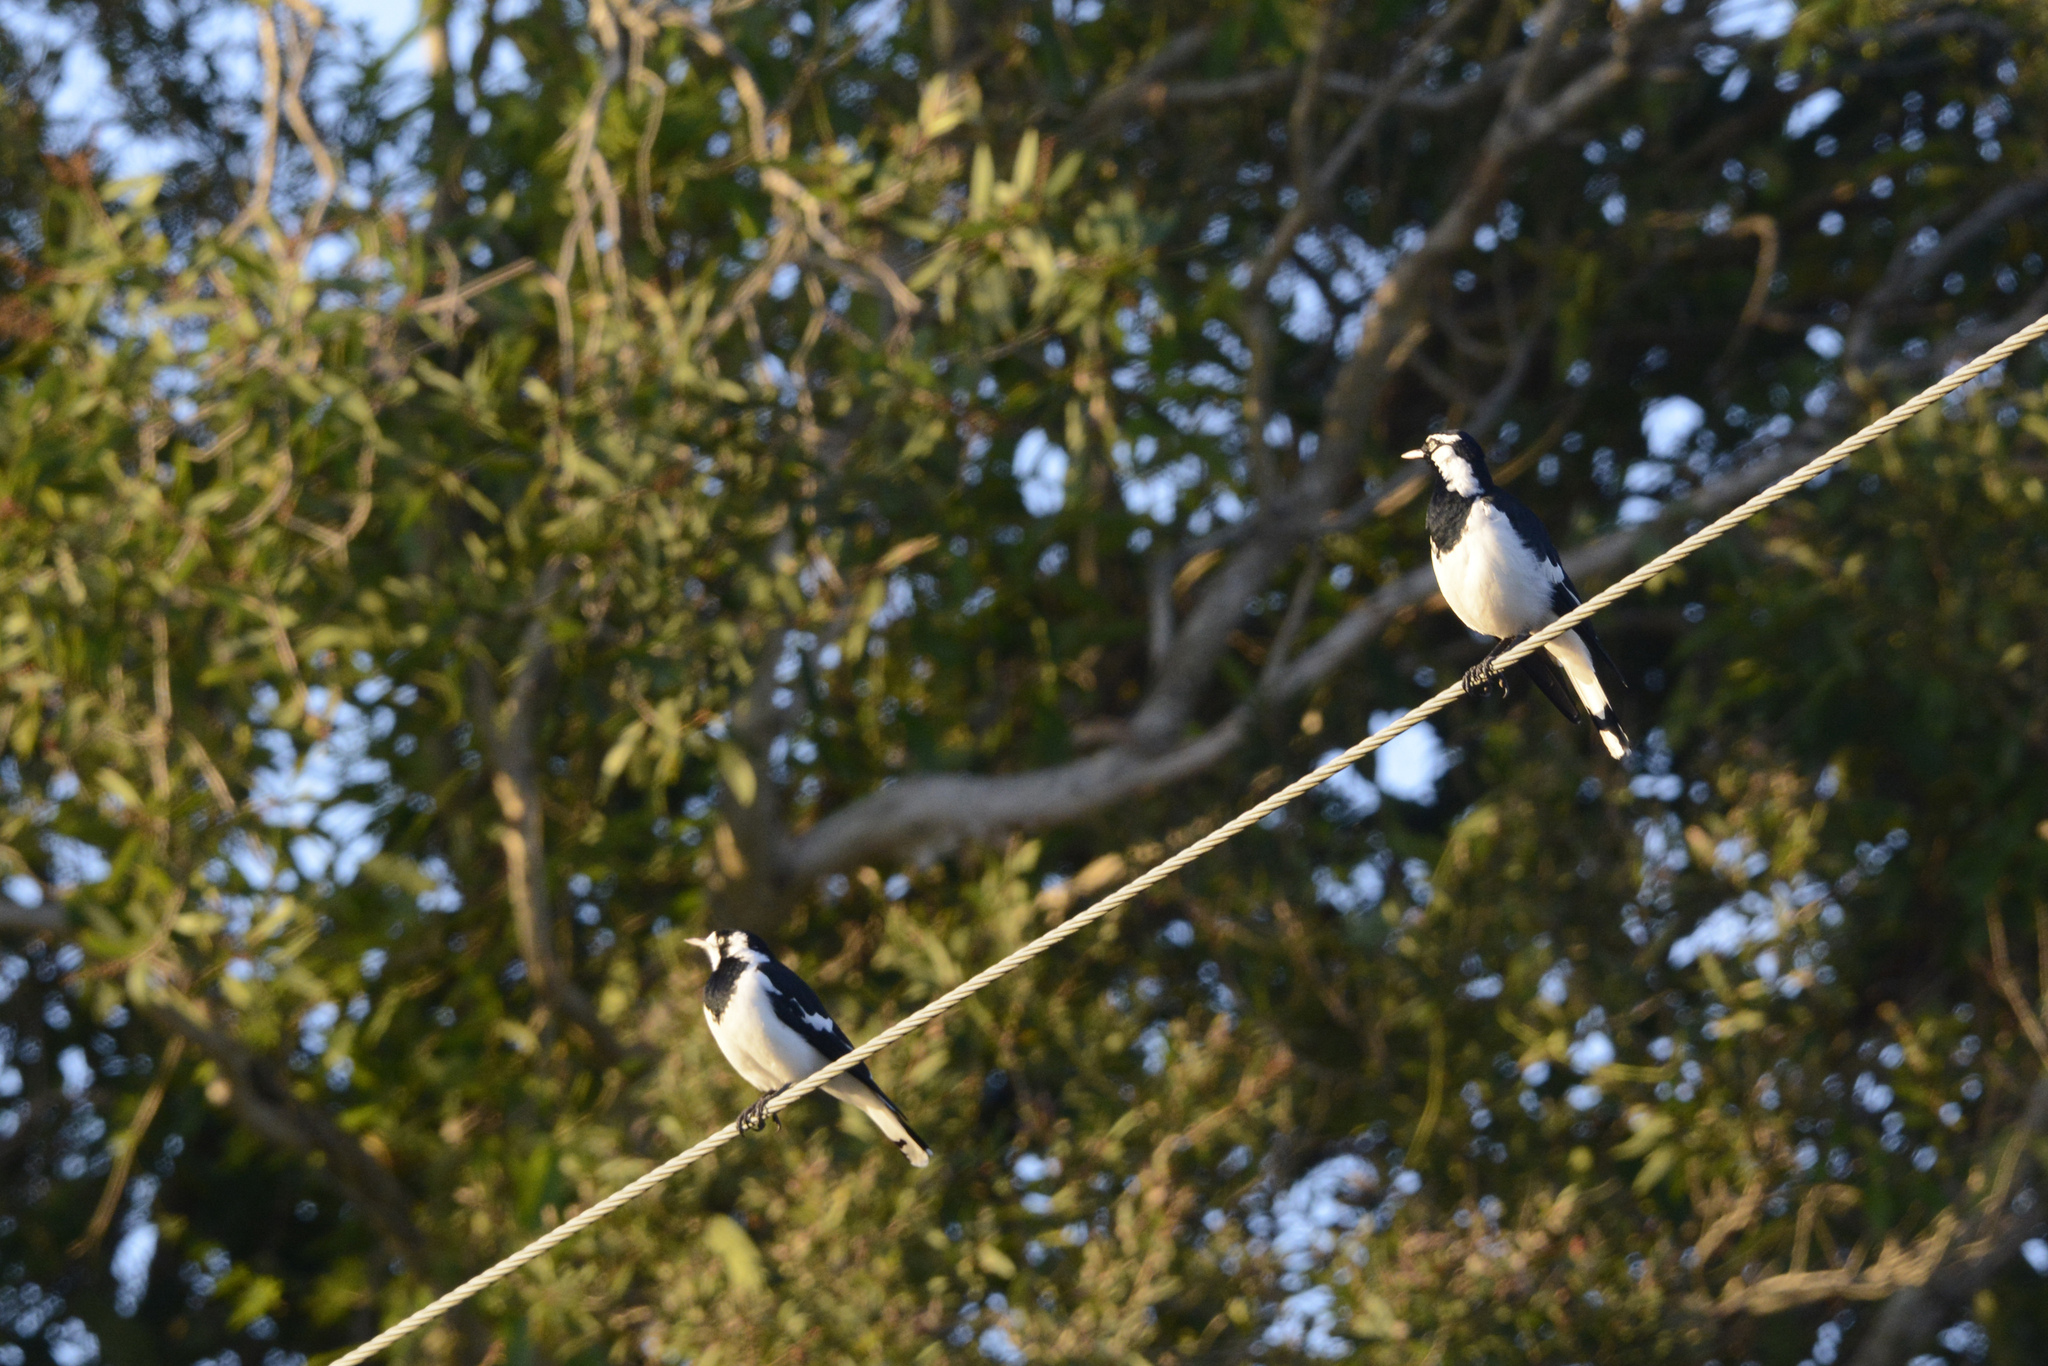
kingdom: Animalia
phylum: Chordata
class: Aves
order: Passeriformes
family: Monarchidae
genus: Grallina
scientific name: Grallina cyanoleuca
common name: Magpie-lark
